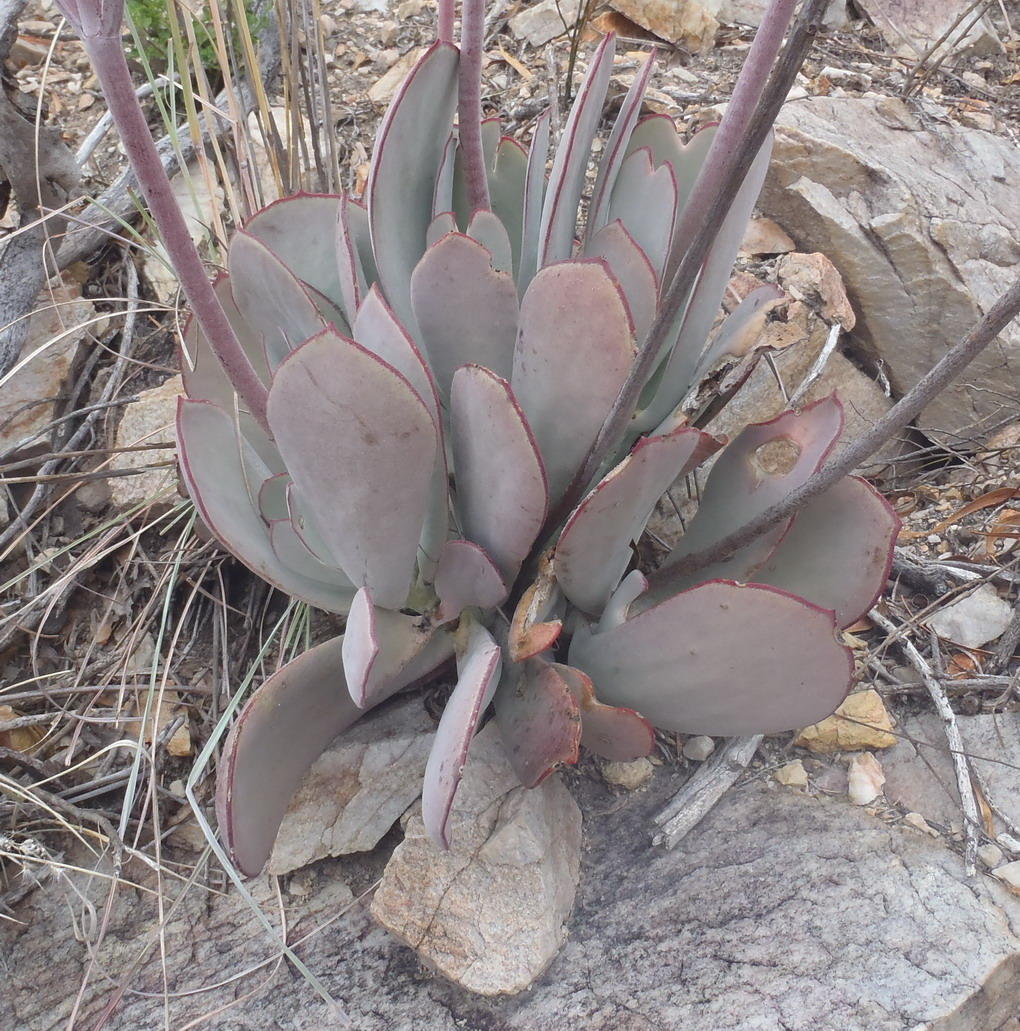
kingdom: Plantae
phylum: Tracheophyta
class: Magnoliopsida
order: Saxifragales
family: Crassulaceae
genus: Cotyledon
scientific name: Cotyledon orbiculata
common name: Pig's ear
